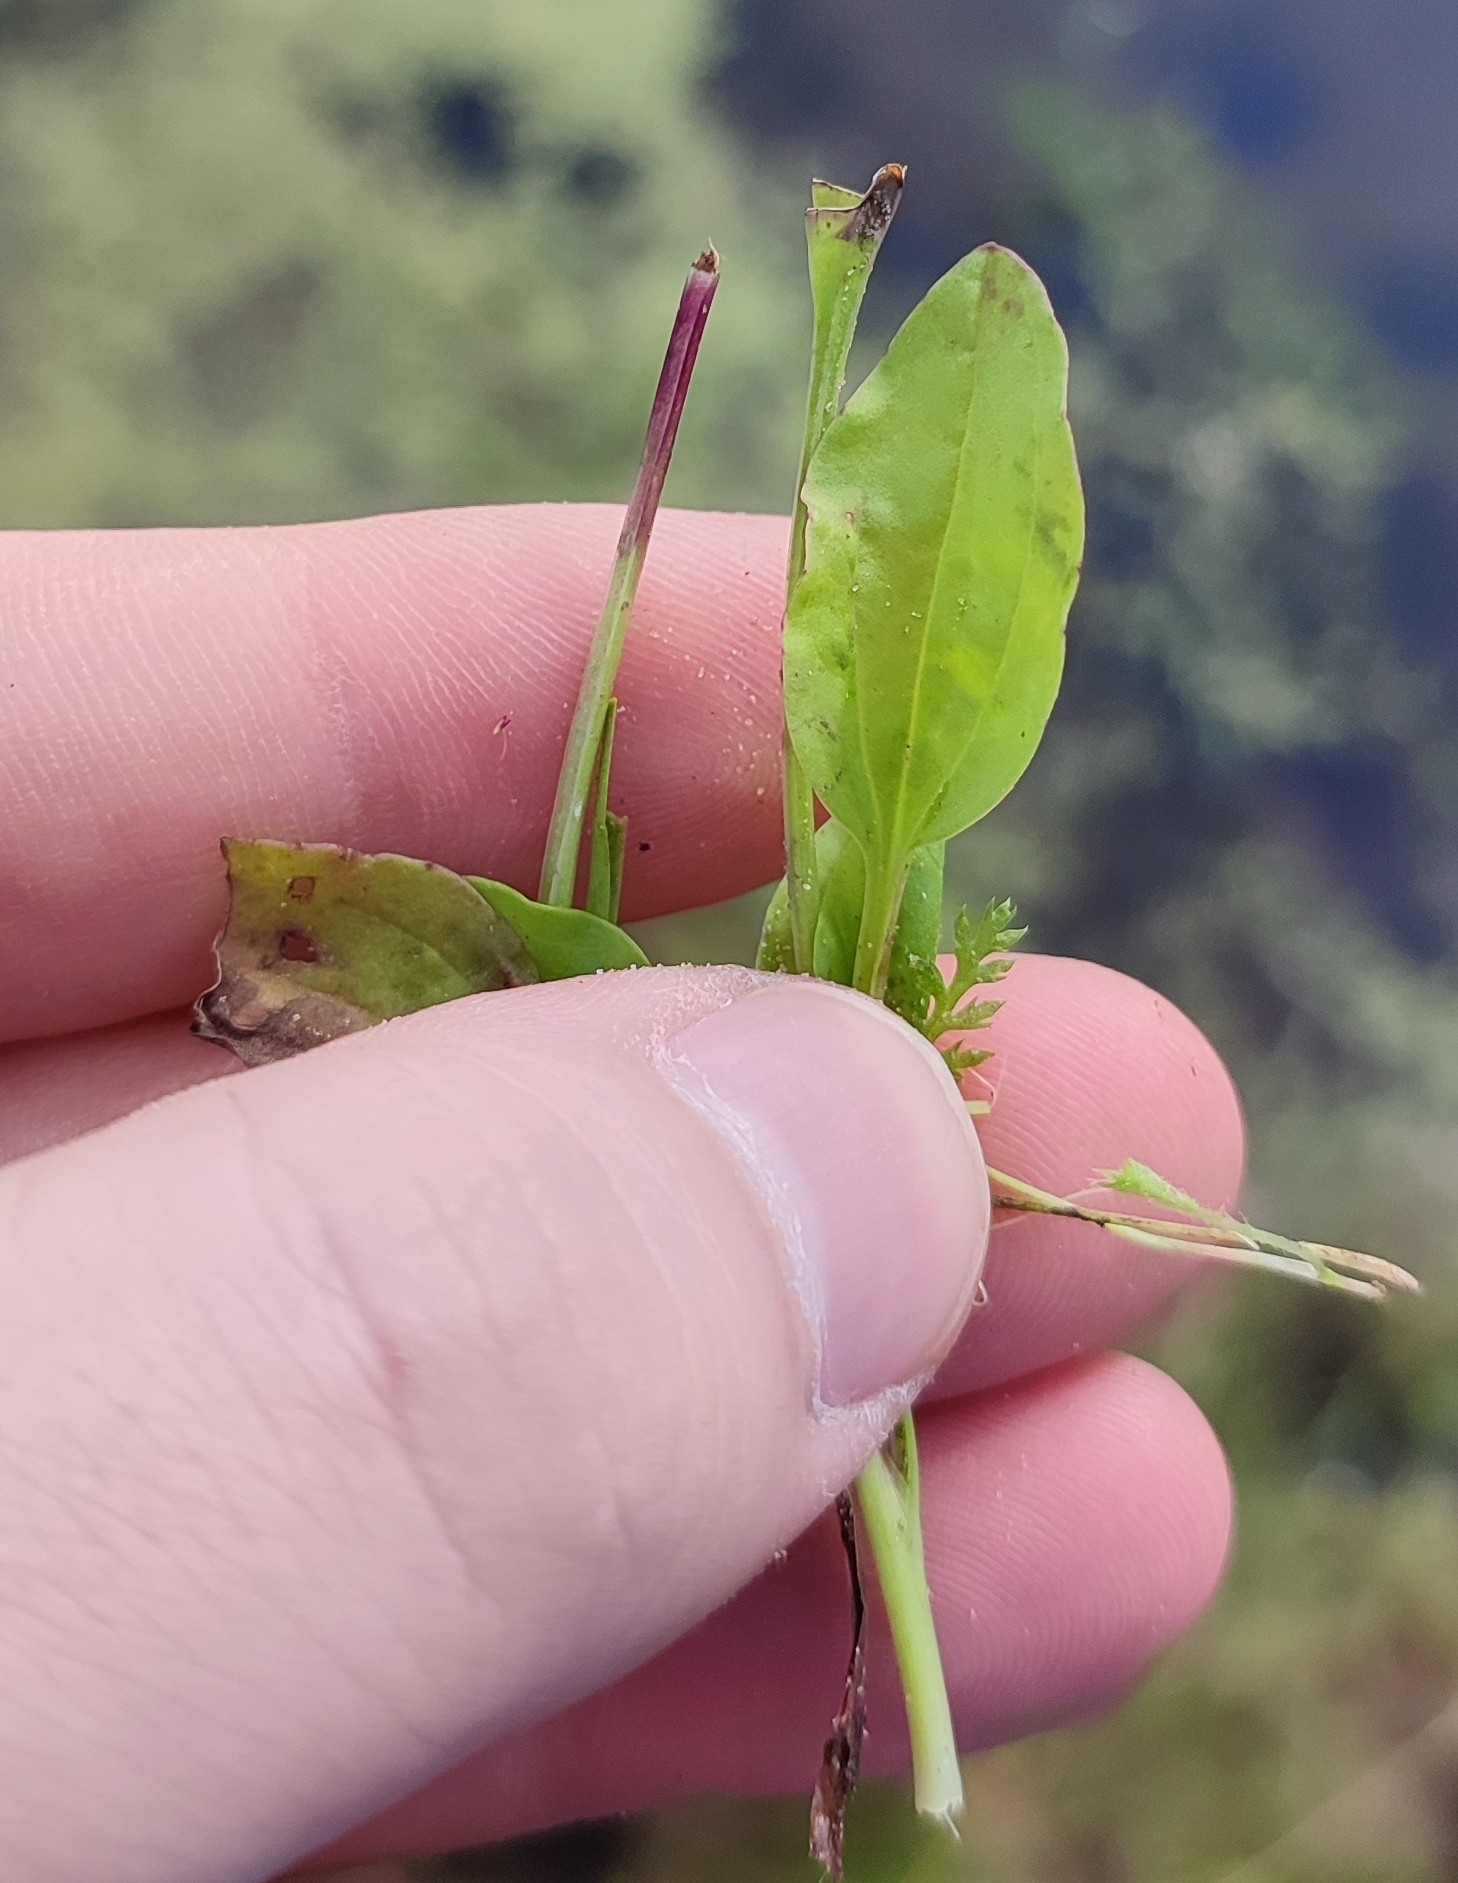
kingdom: Plantae
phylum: Tracheophyta
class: Magnoliopsida
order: Lamiales
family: Plantaginaceae
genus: Plantago
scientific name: Plantago major
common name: Common plantain
